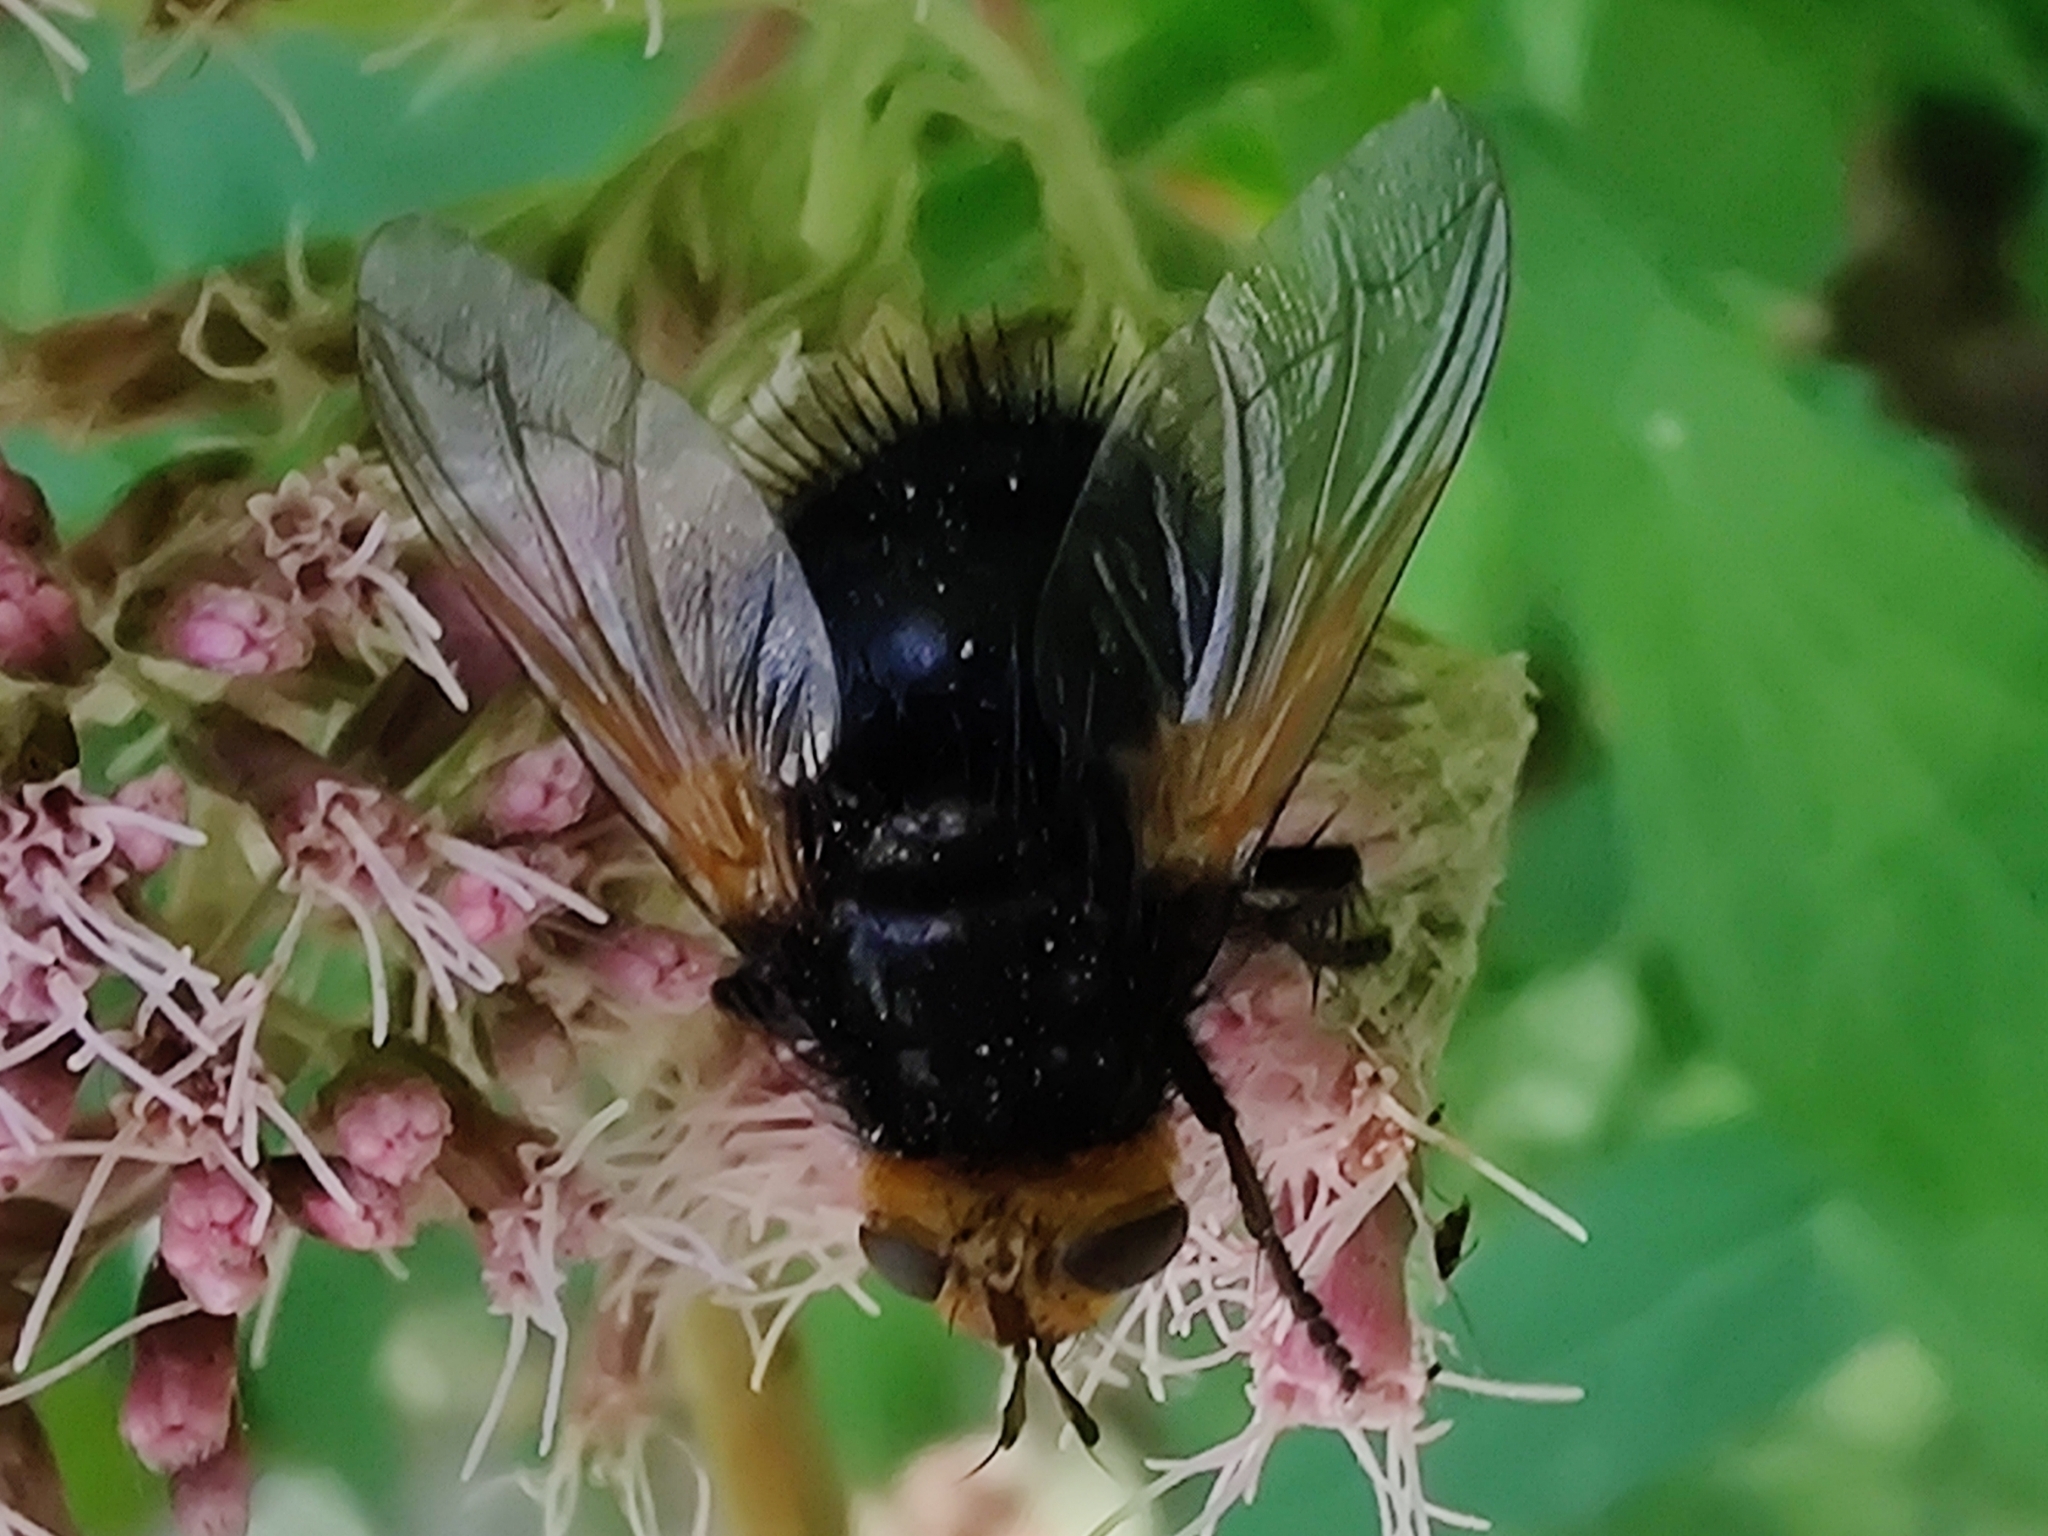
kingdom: Animalia
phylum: Arthropoda
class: Insecta
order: Diptera
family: Tachinidae
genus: Tachina
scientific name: Tachina grossa
